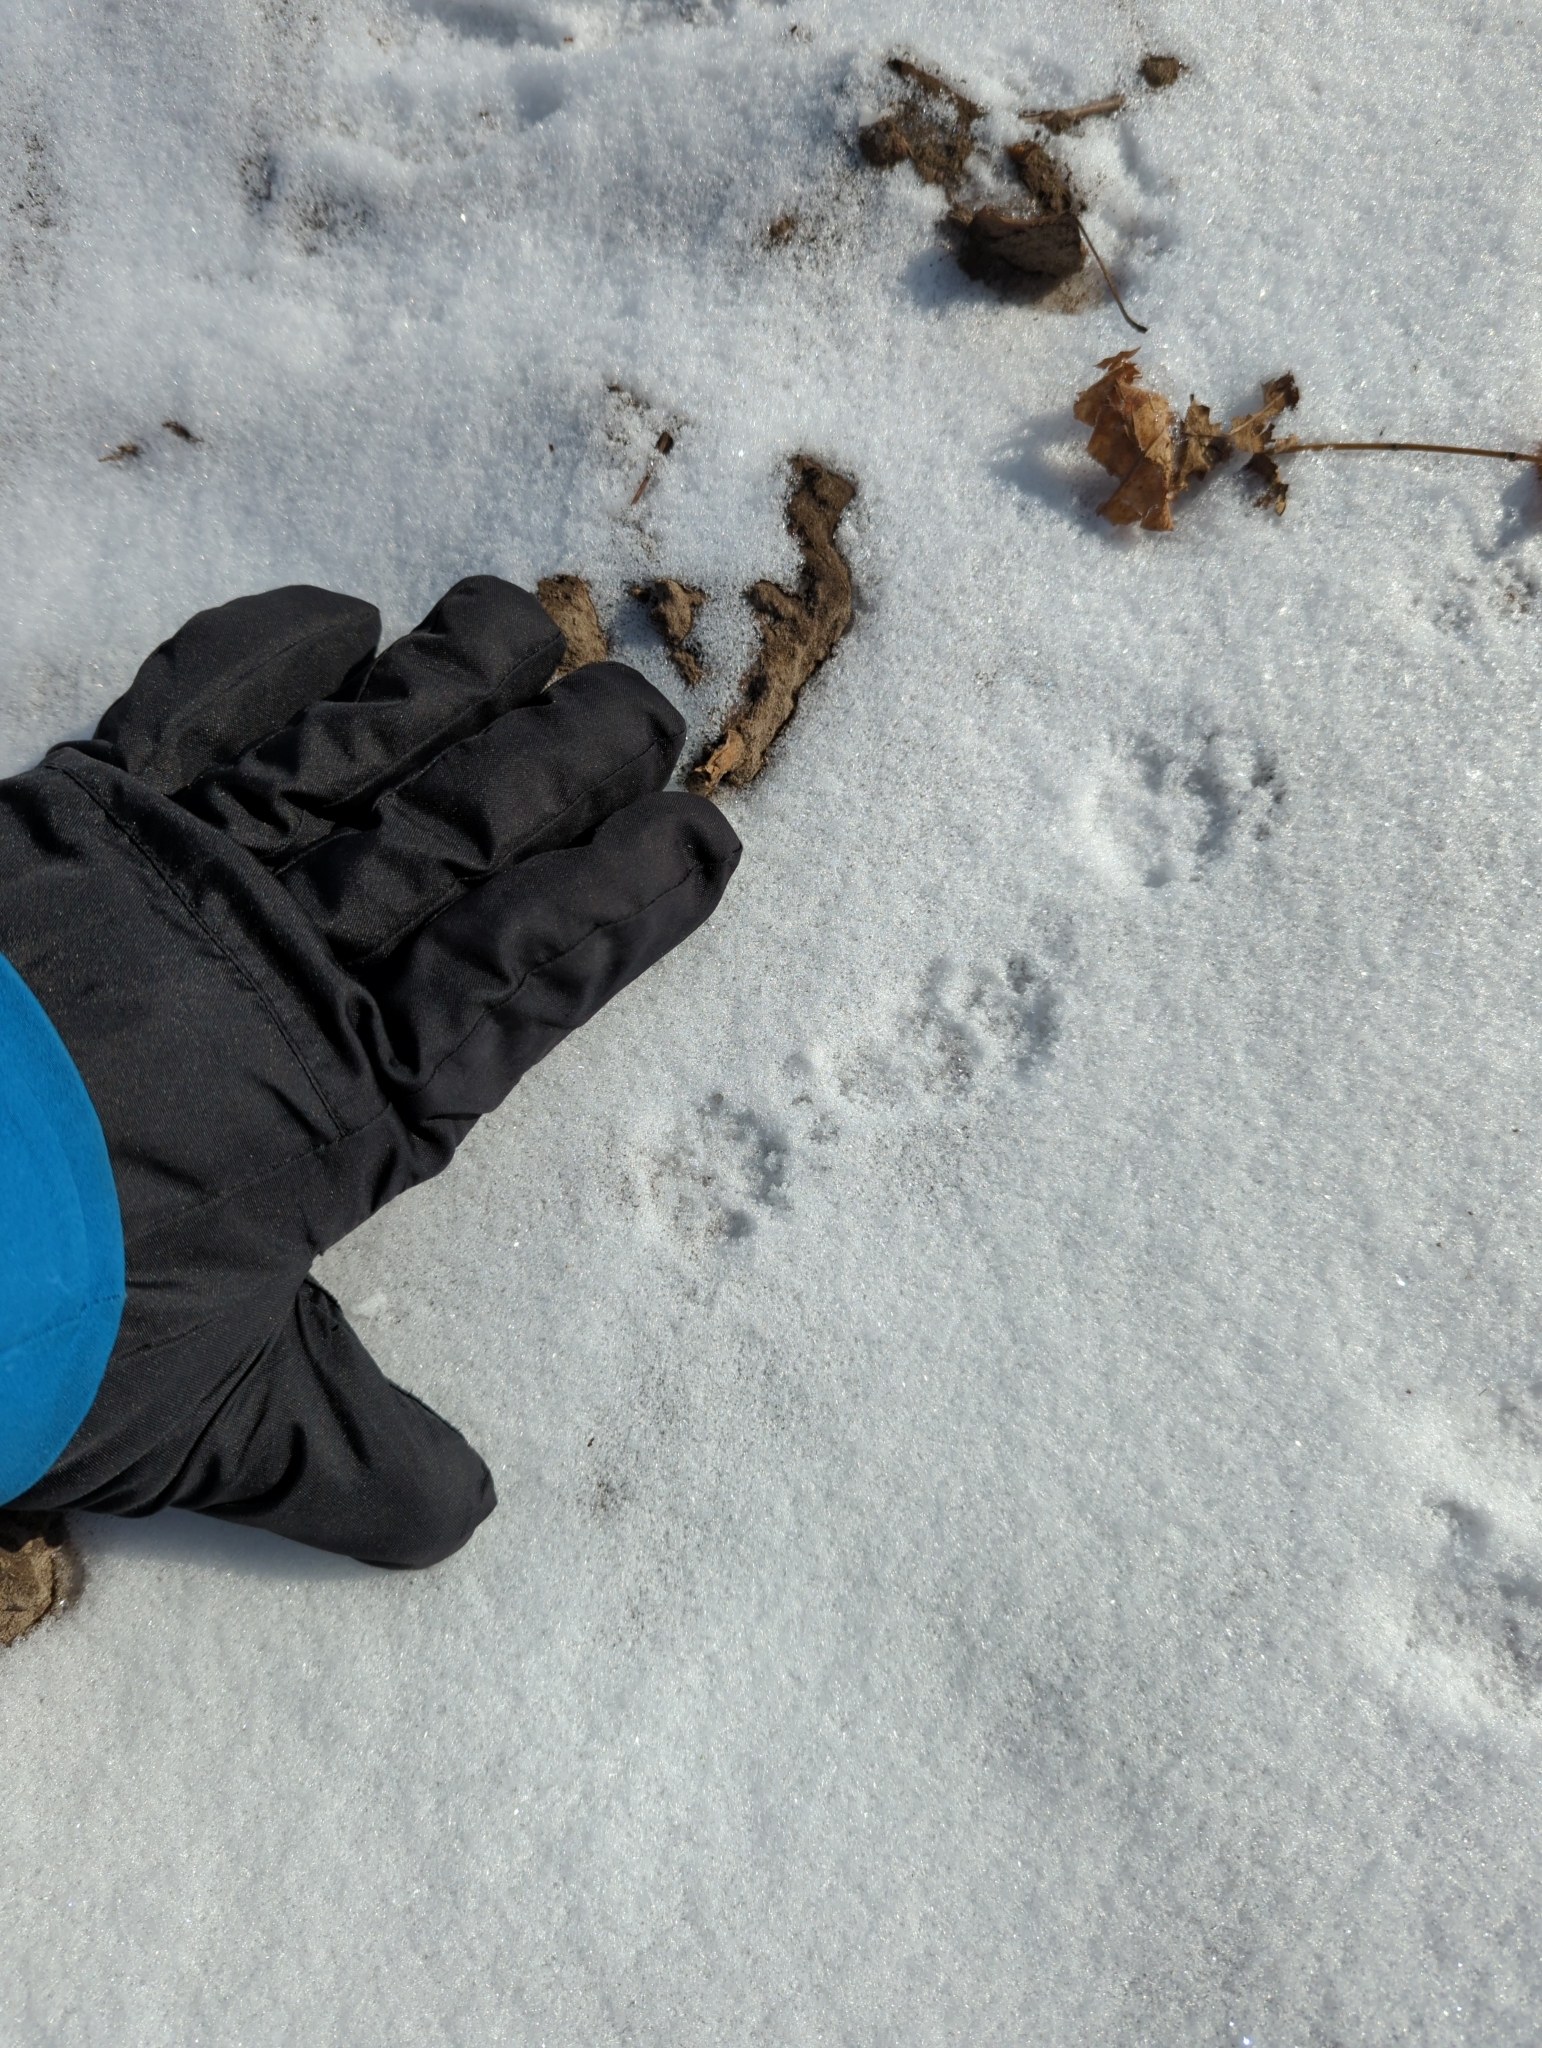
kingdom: Animalia
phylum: Chordata
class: Mammalia
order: Carnivora
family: Mephitidae
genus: Mephitis
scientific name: Mephitis mephitis
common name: Striped skunk
